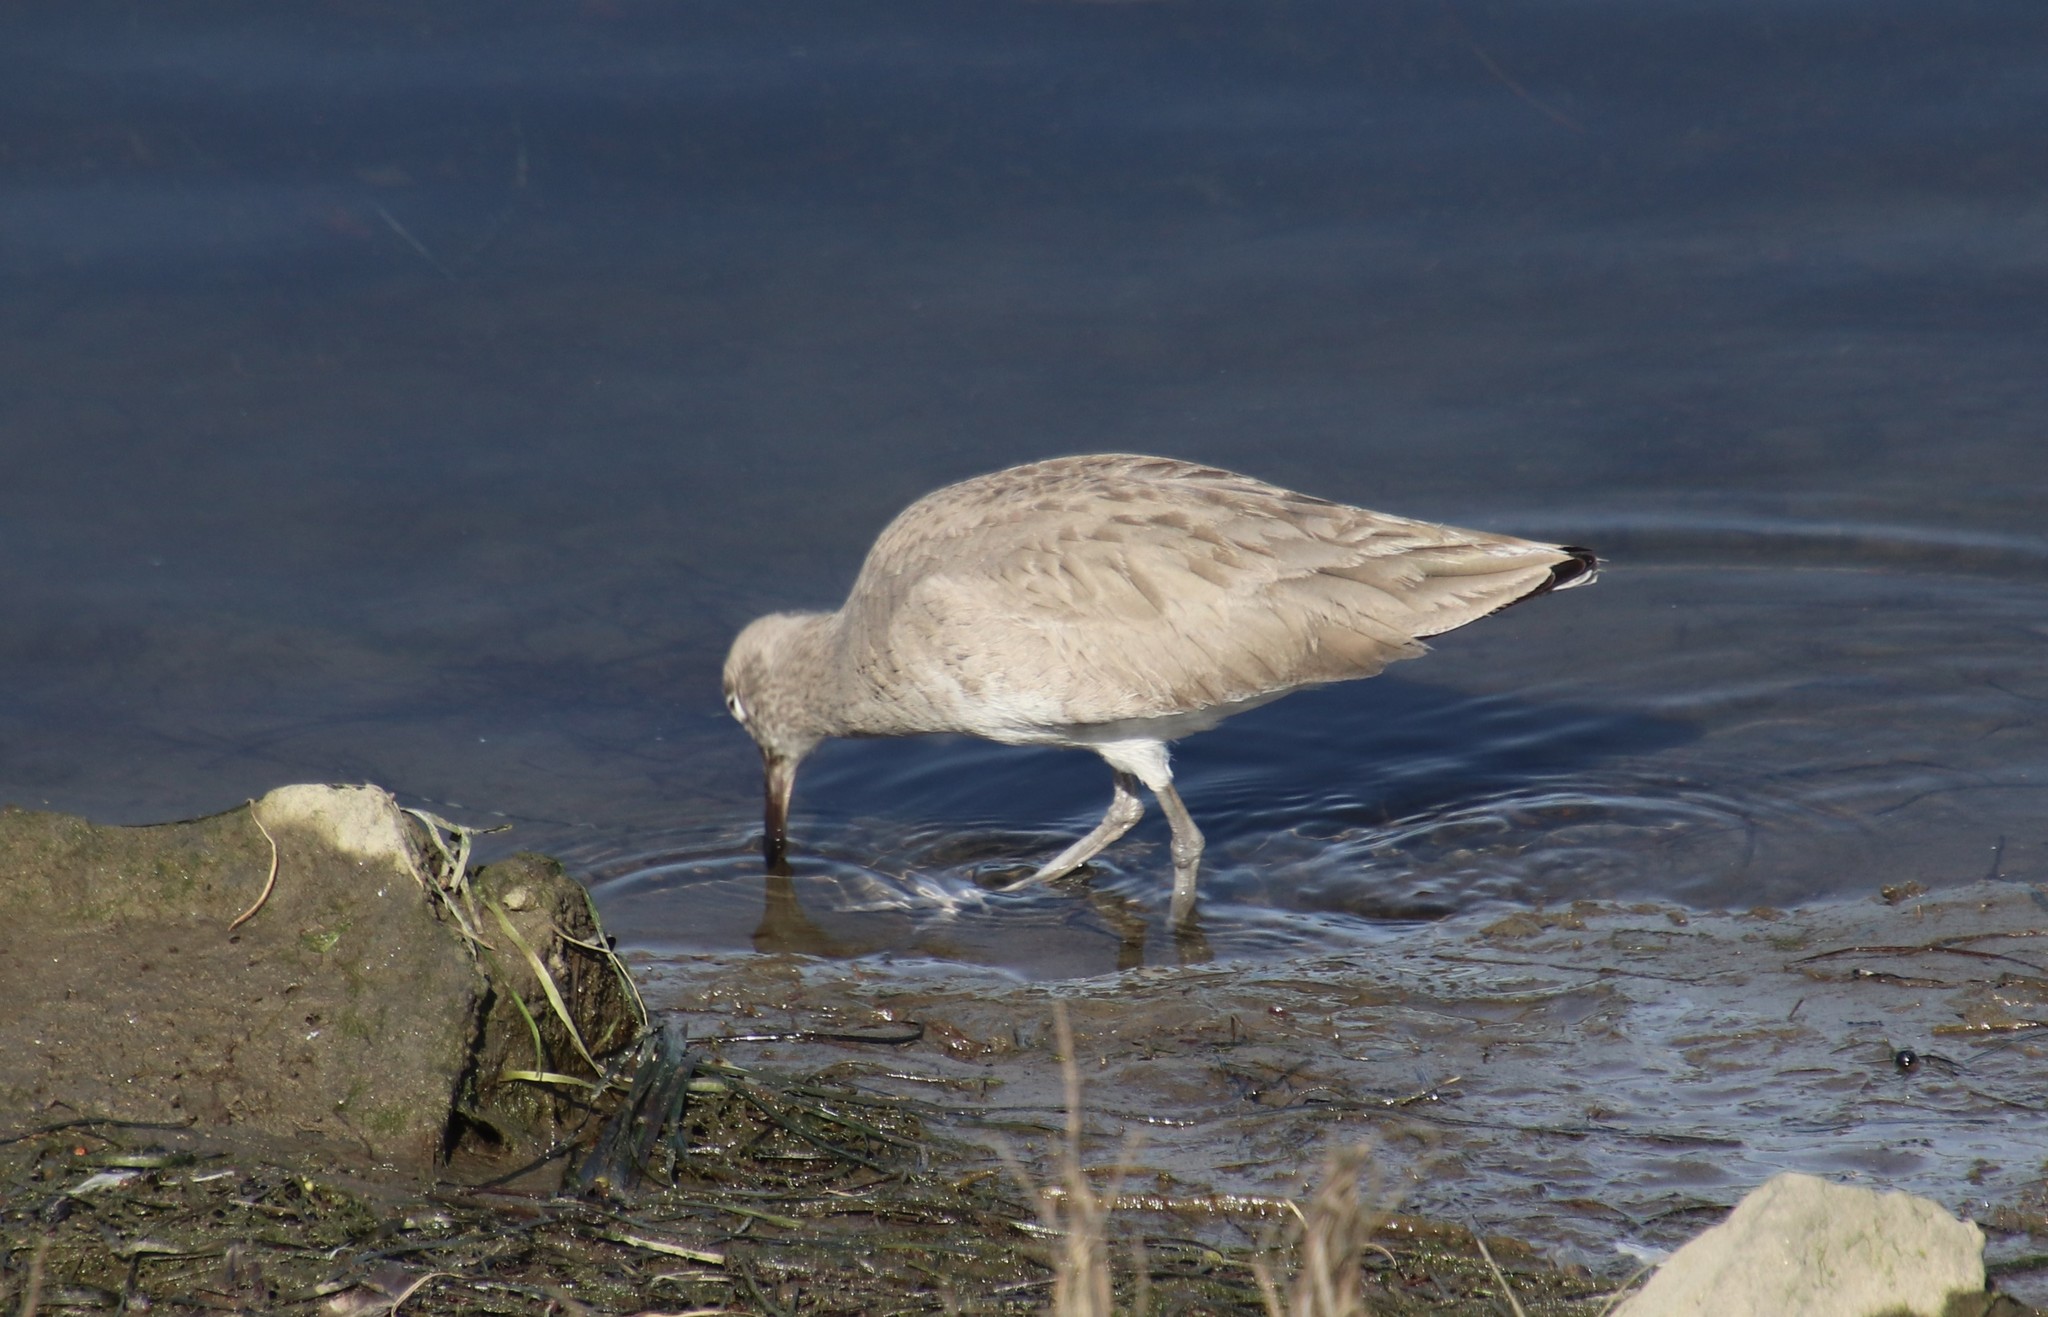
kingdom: Animalia
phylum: Chordata
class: Aves
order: Charadriiformes
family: Scolopacidae
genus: Tringa
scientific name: Tringa semipalmata
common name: Willet
